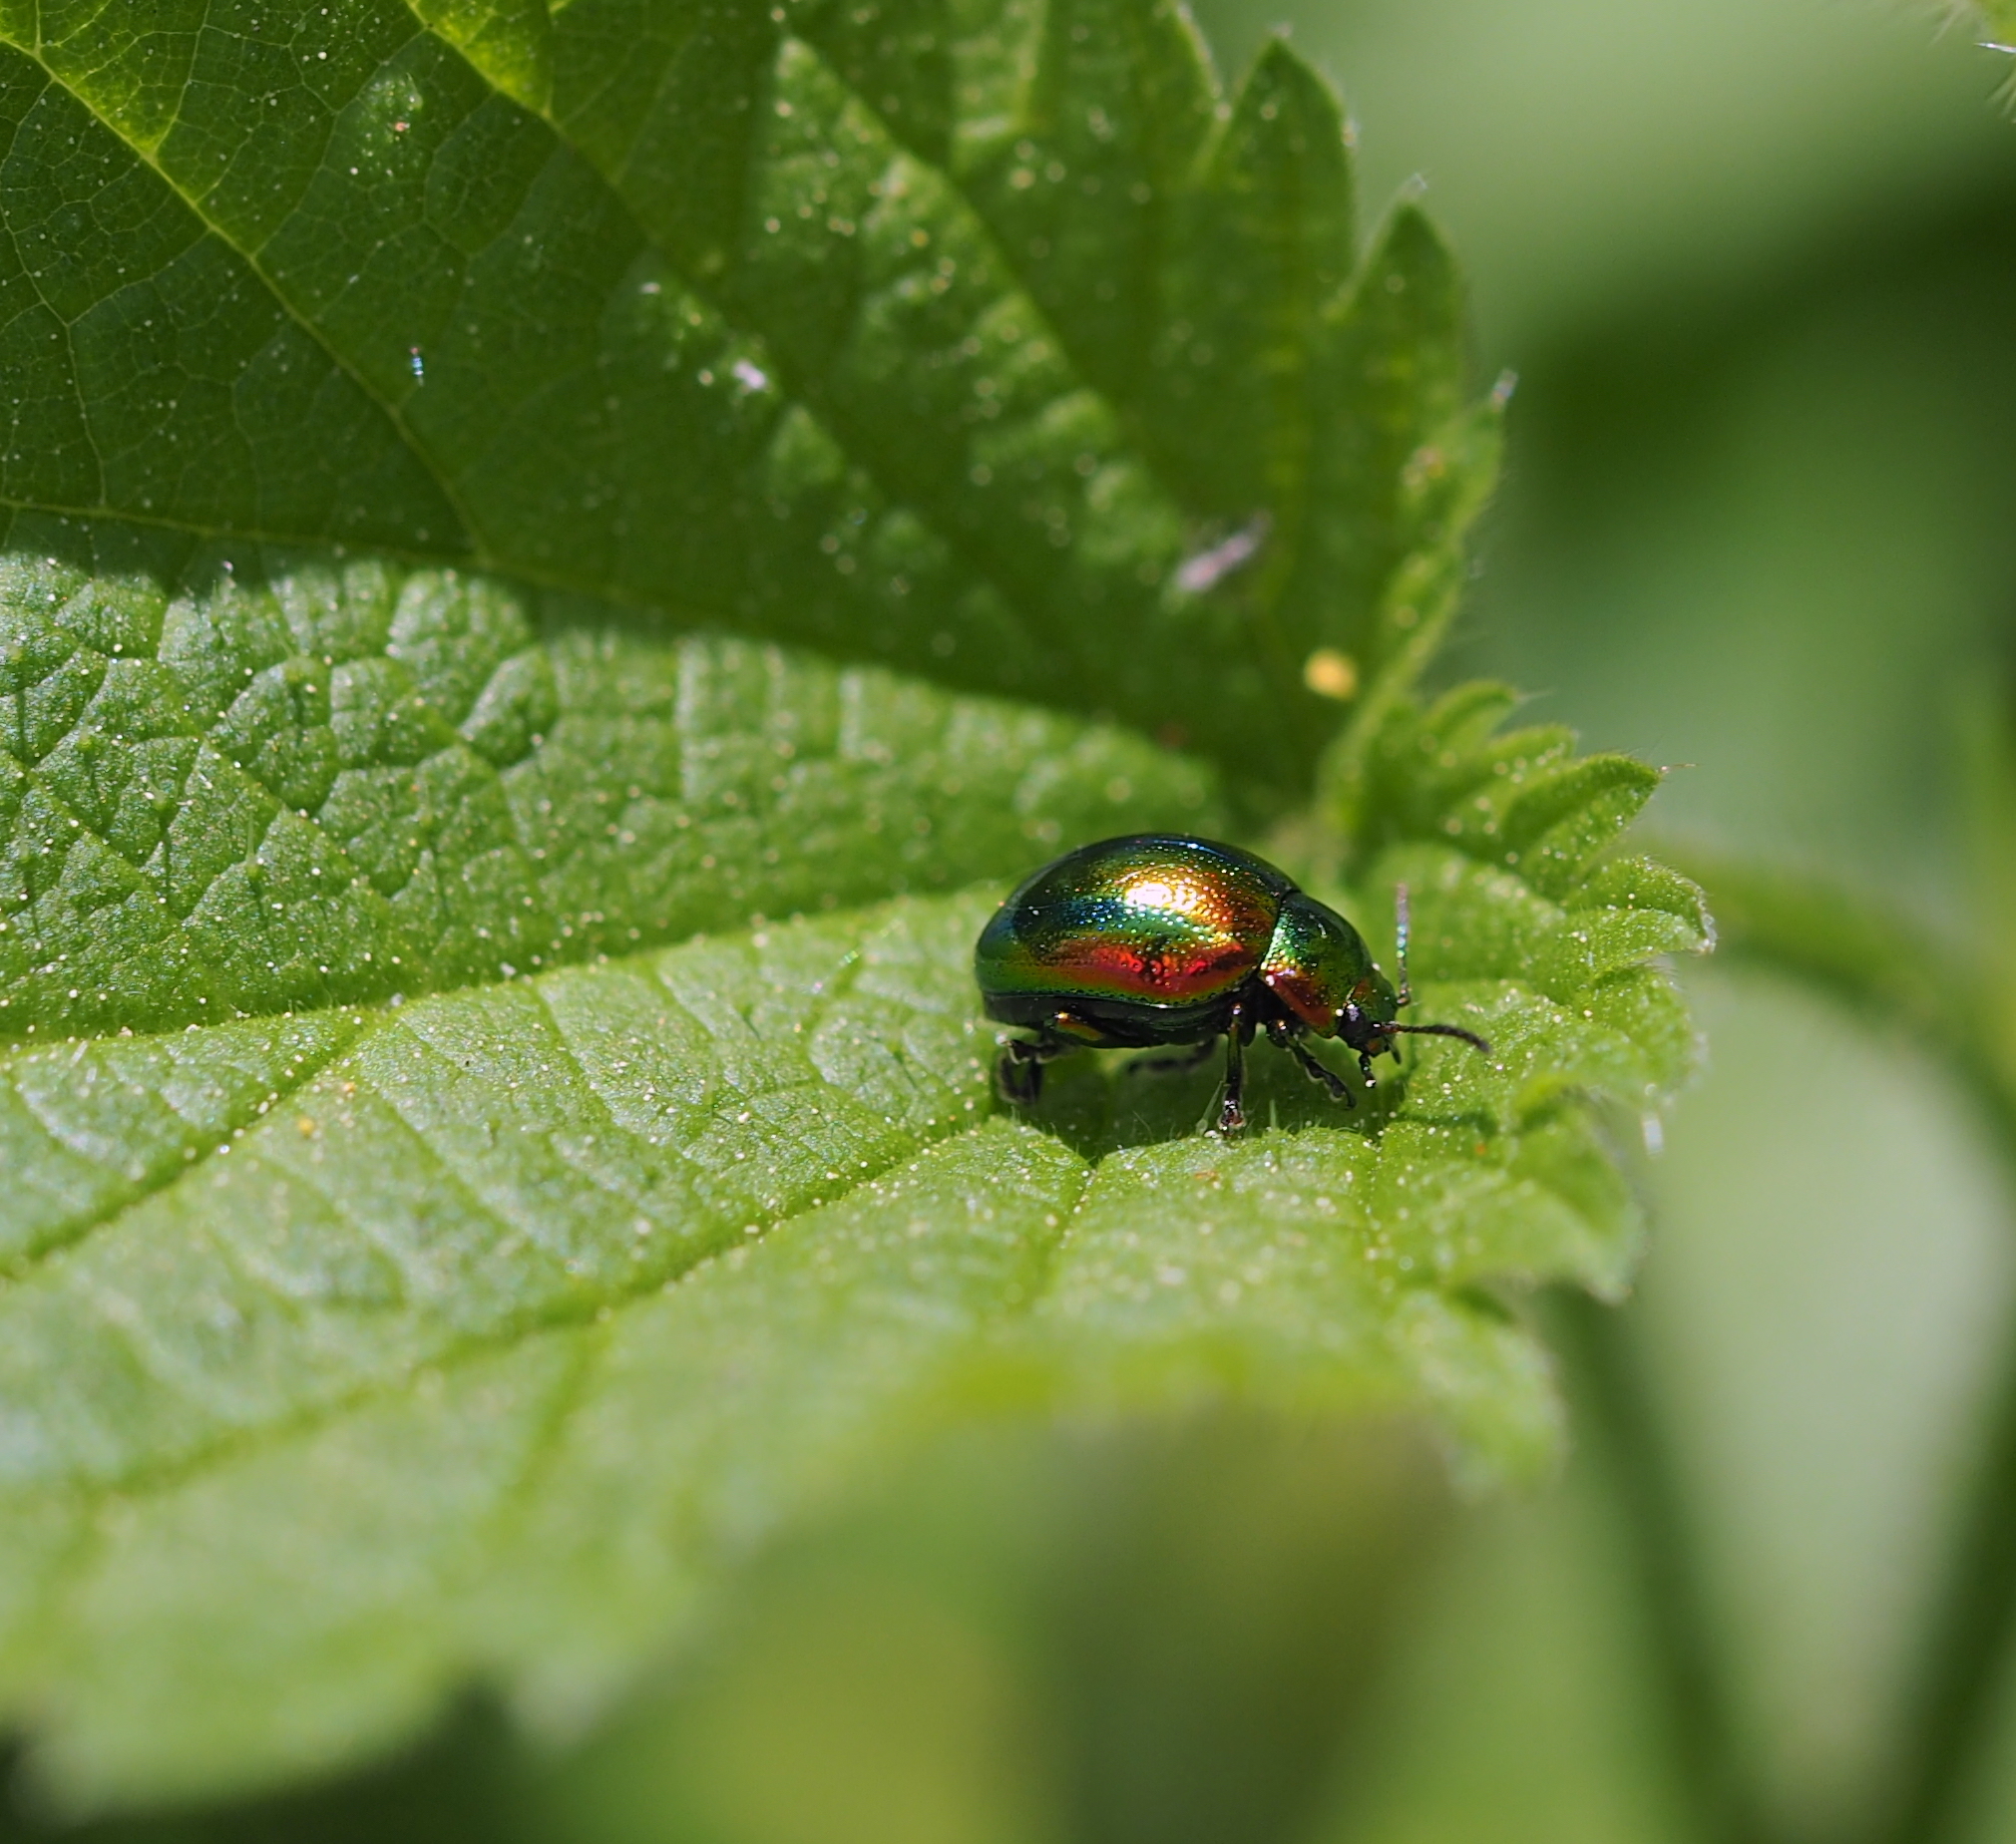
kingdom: Animalia
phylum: Arthropoda
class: Insecta
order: Coleoptera
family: Chrysomelidae
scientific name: Chrysomelidae
